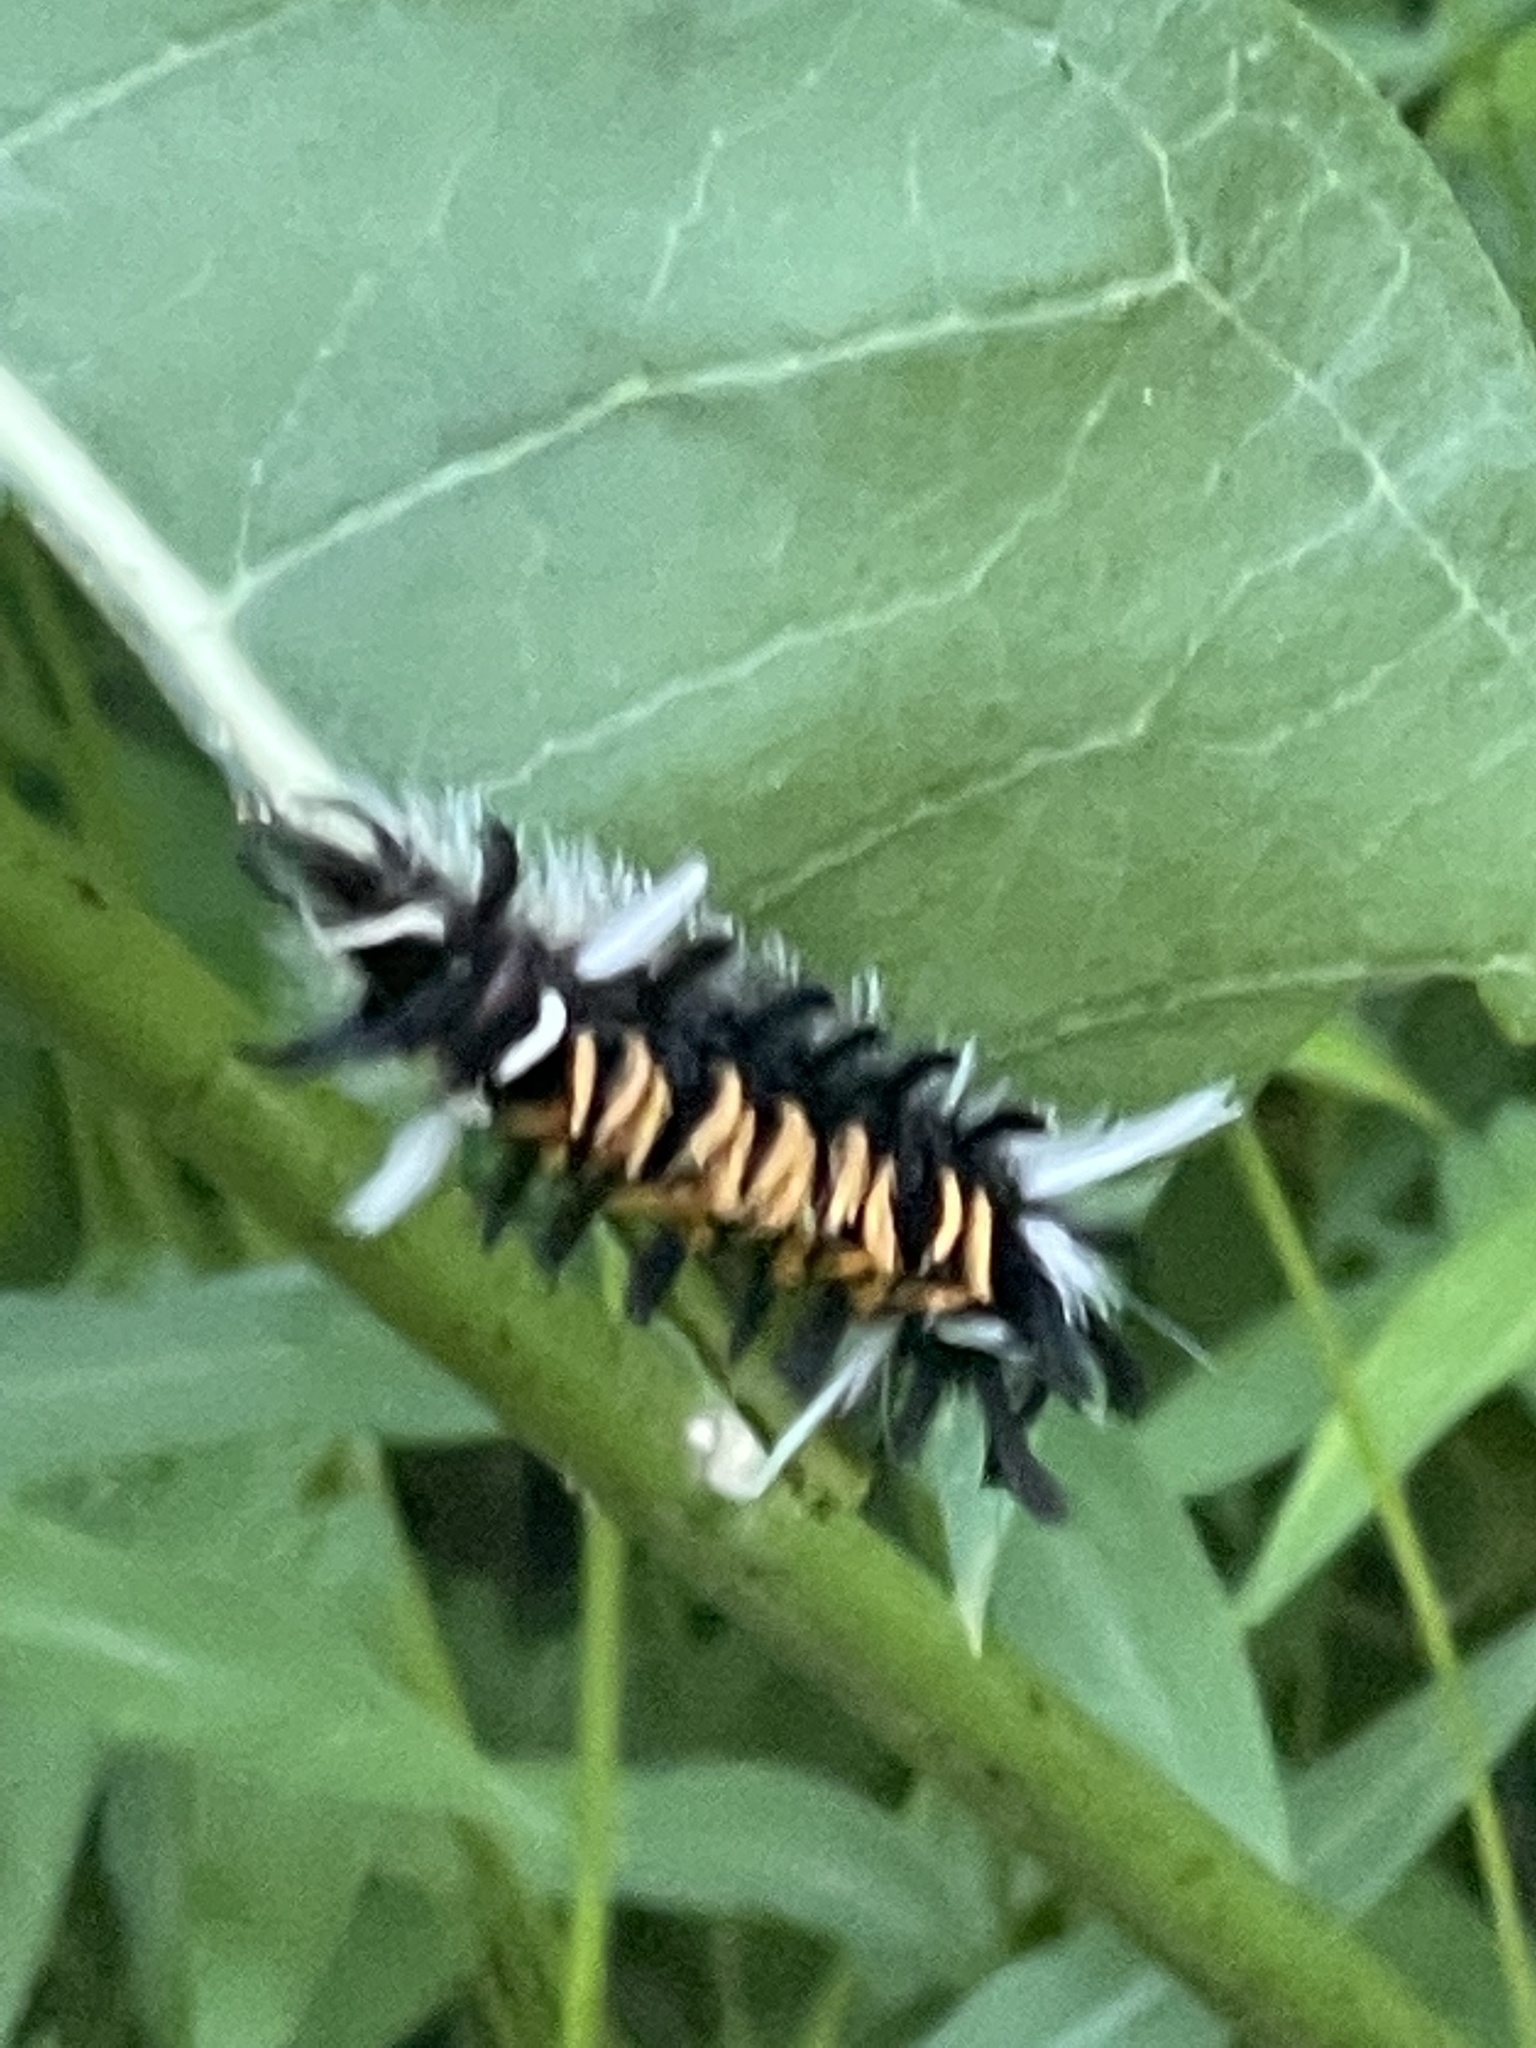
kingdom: Animalia
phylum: Arthropoda
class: Insecta
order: Lepidoptera
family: Erebidae
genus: Euchaetes
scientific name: Euchaetes egle
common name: Milkweed tussock moth
